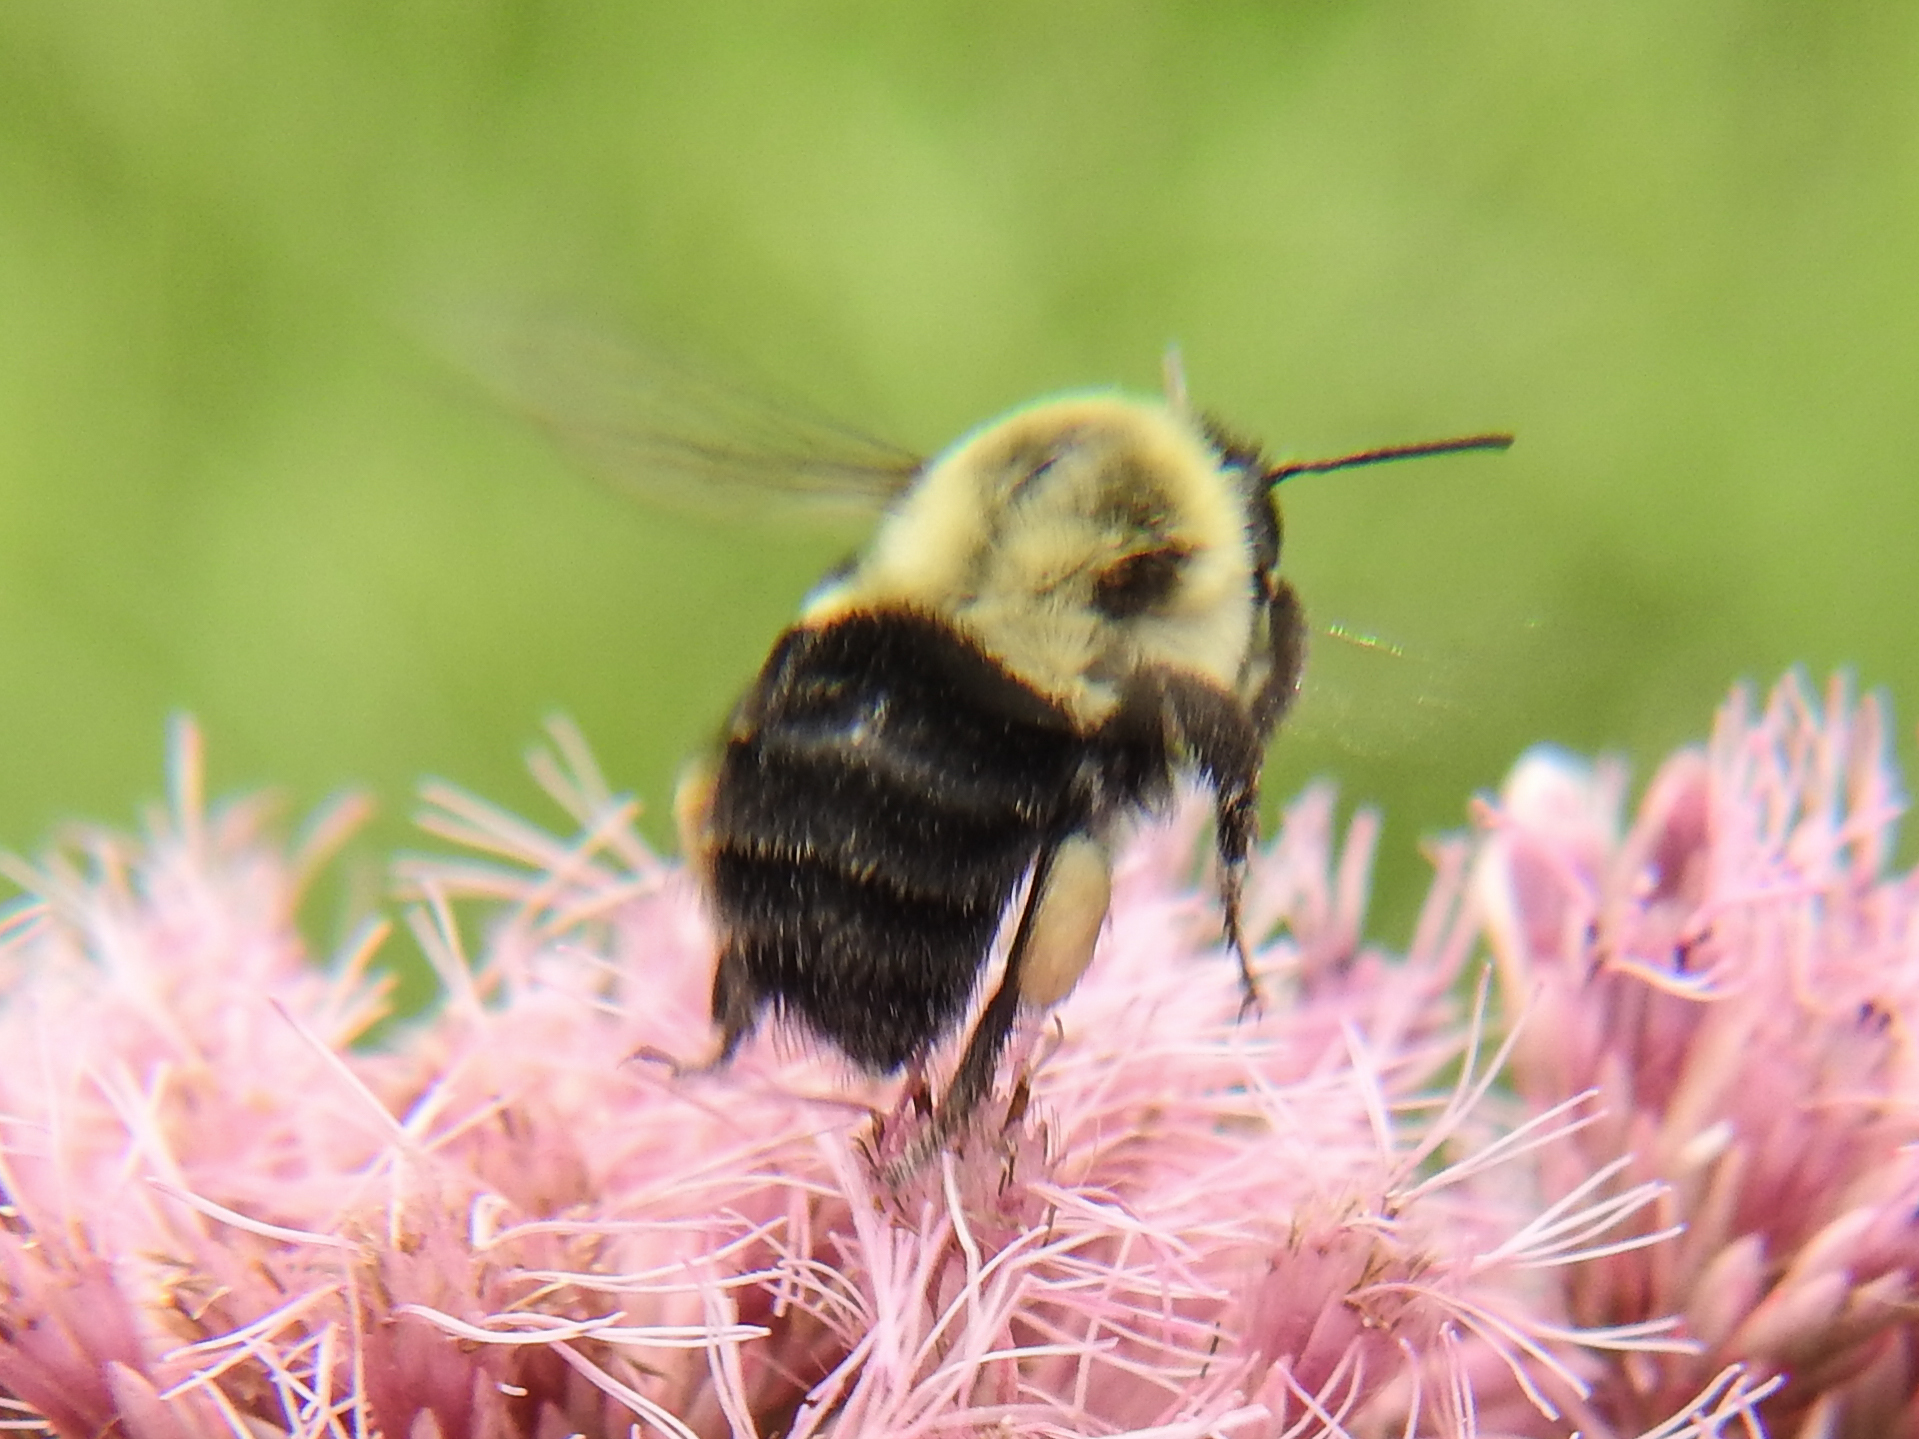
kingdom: Animalia
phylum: Arthropoda
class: Insecta
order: Hymenoptera
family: Apidae
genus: Bombus
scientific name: Bombus impatiens
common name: Common eastern bumble bee
